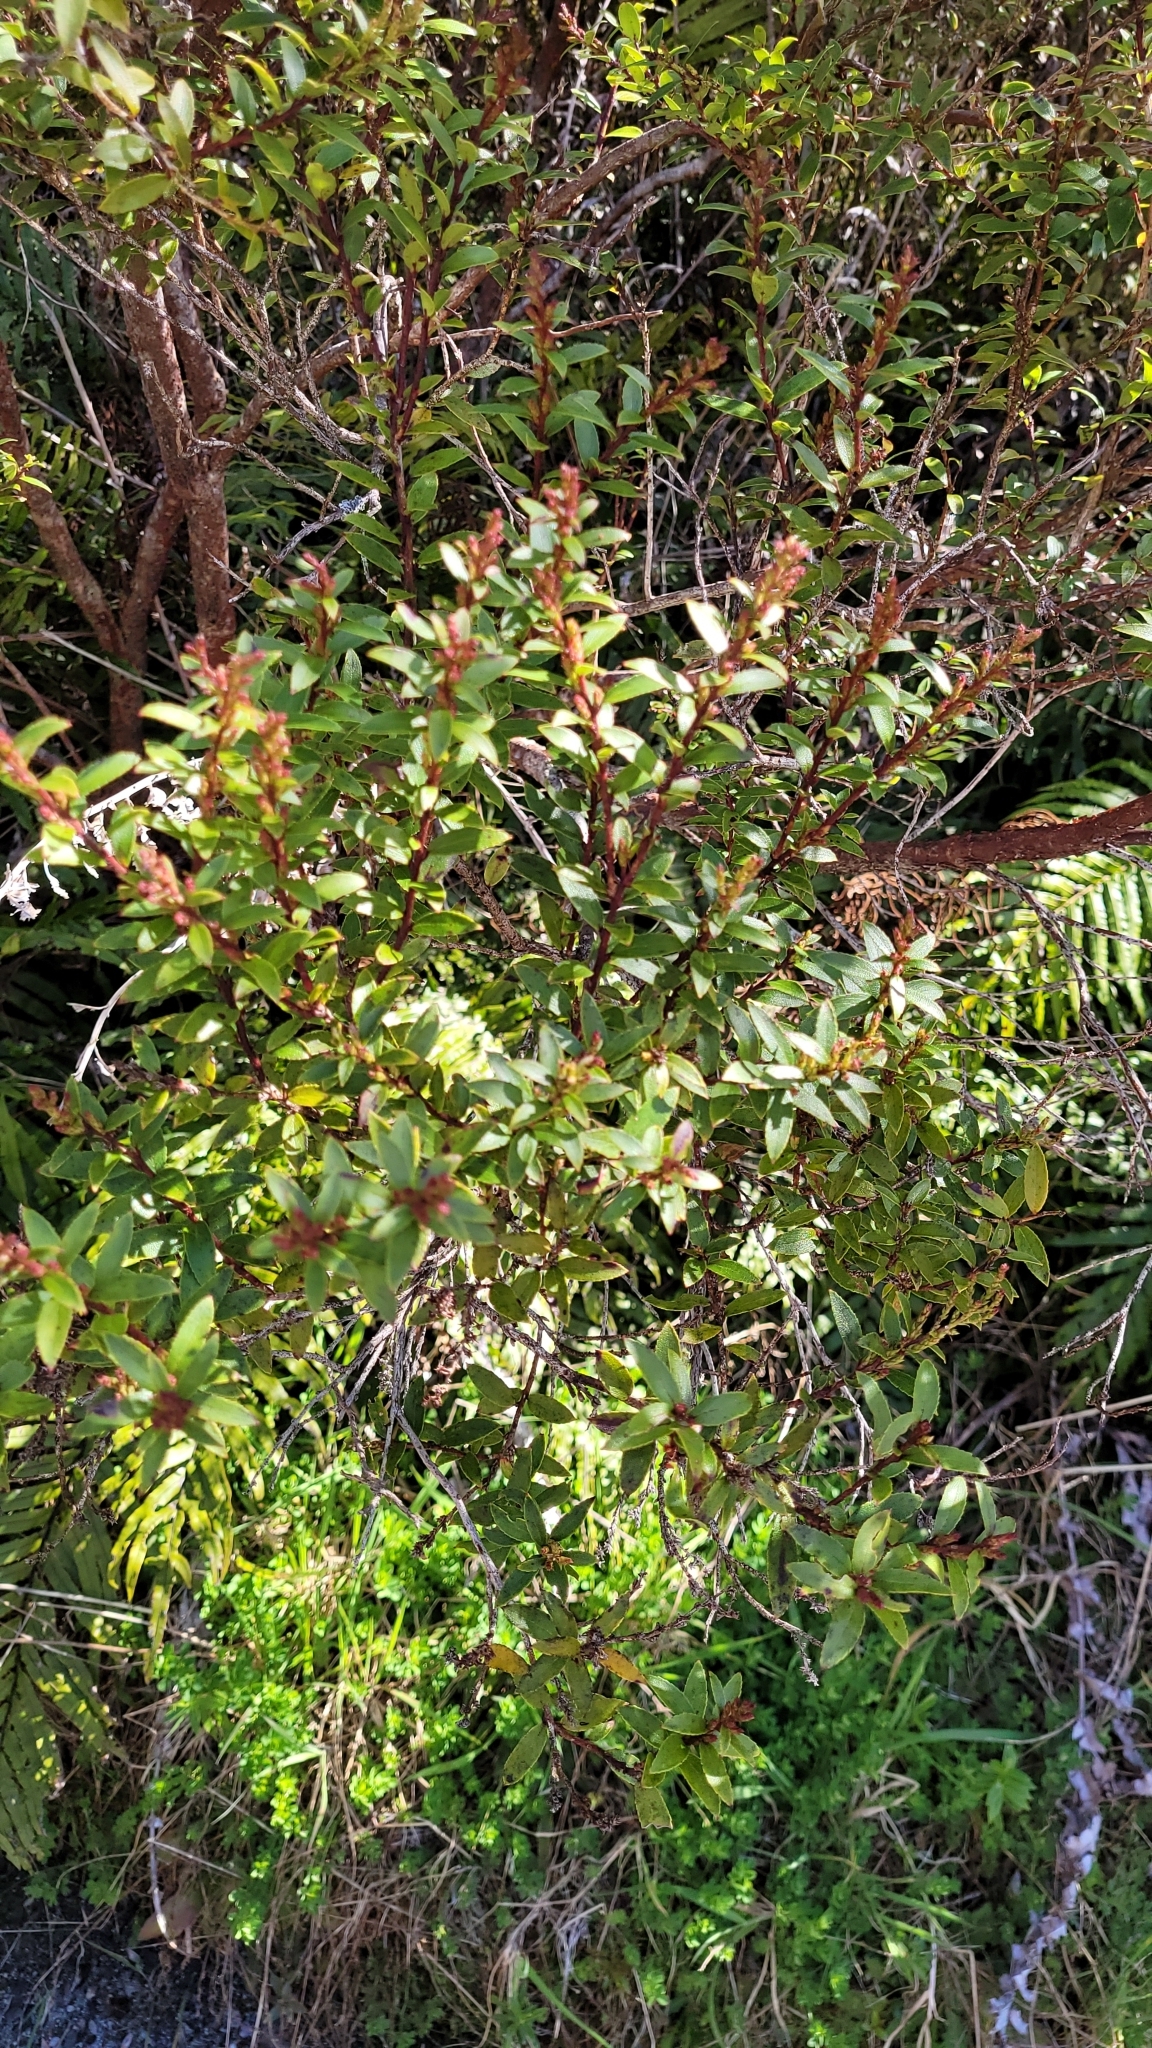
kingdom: Plantae
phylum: Tracheophyta
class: Magnoliopsida
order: Ericales
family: Ericaceae
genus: Gaultheria
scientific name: Gaultheria rupestris
